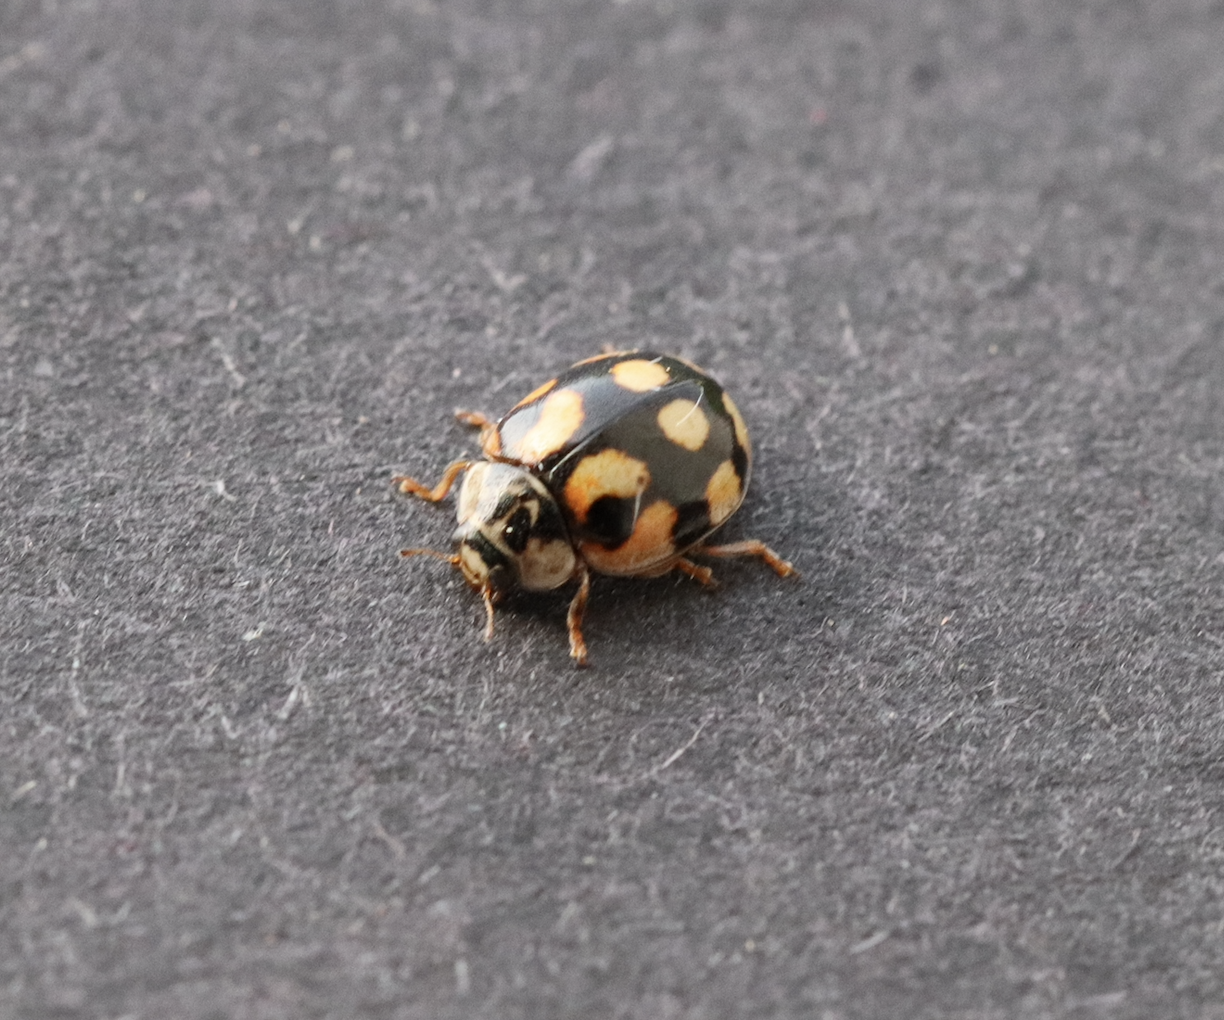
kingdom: Animalia
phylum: Arthropoda
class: Insecta
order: Coleoptera
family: Coccinellidae
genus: Adalia
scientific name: Adalia decempunctata
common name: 10-spot ladybird
